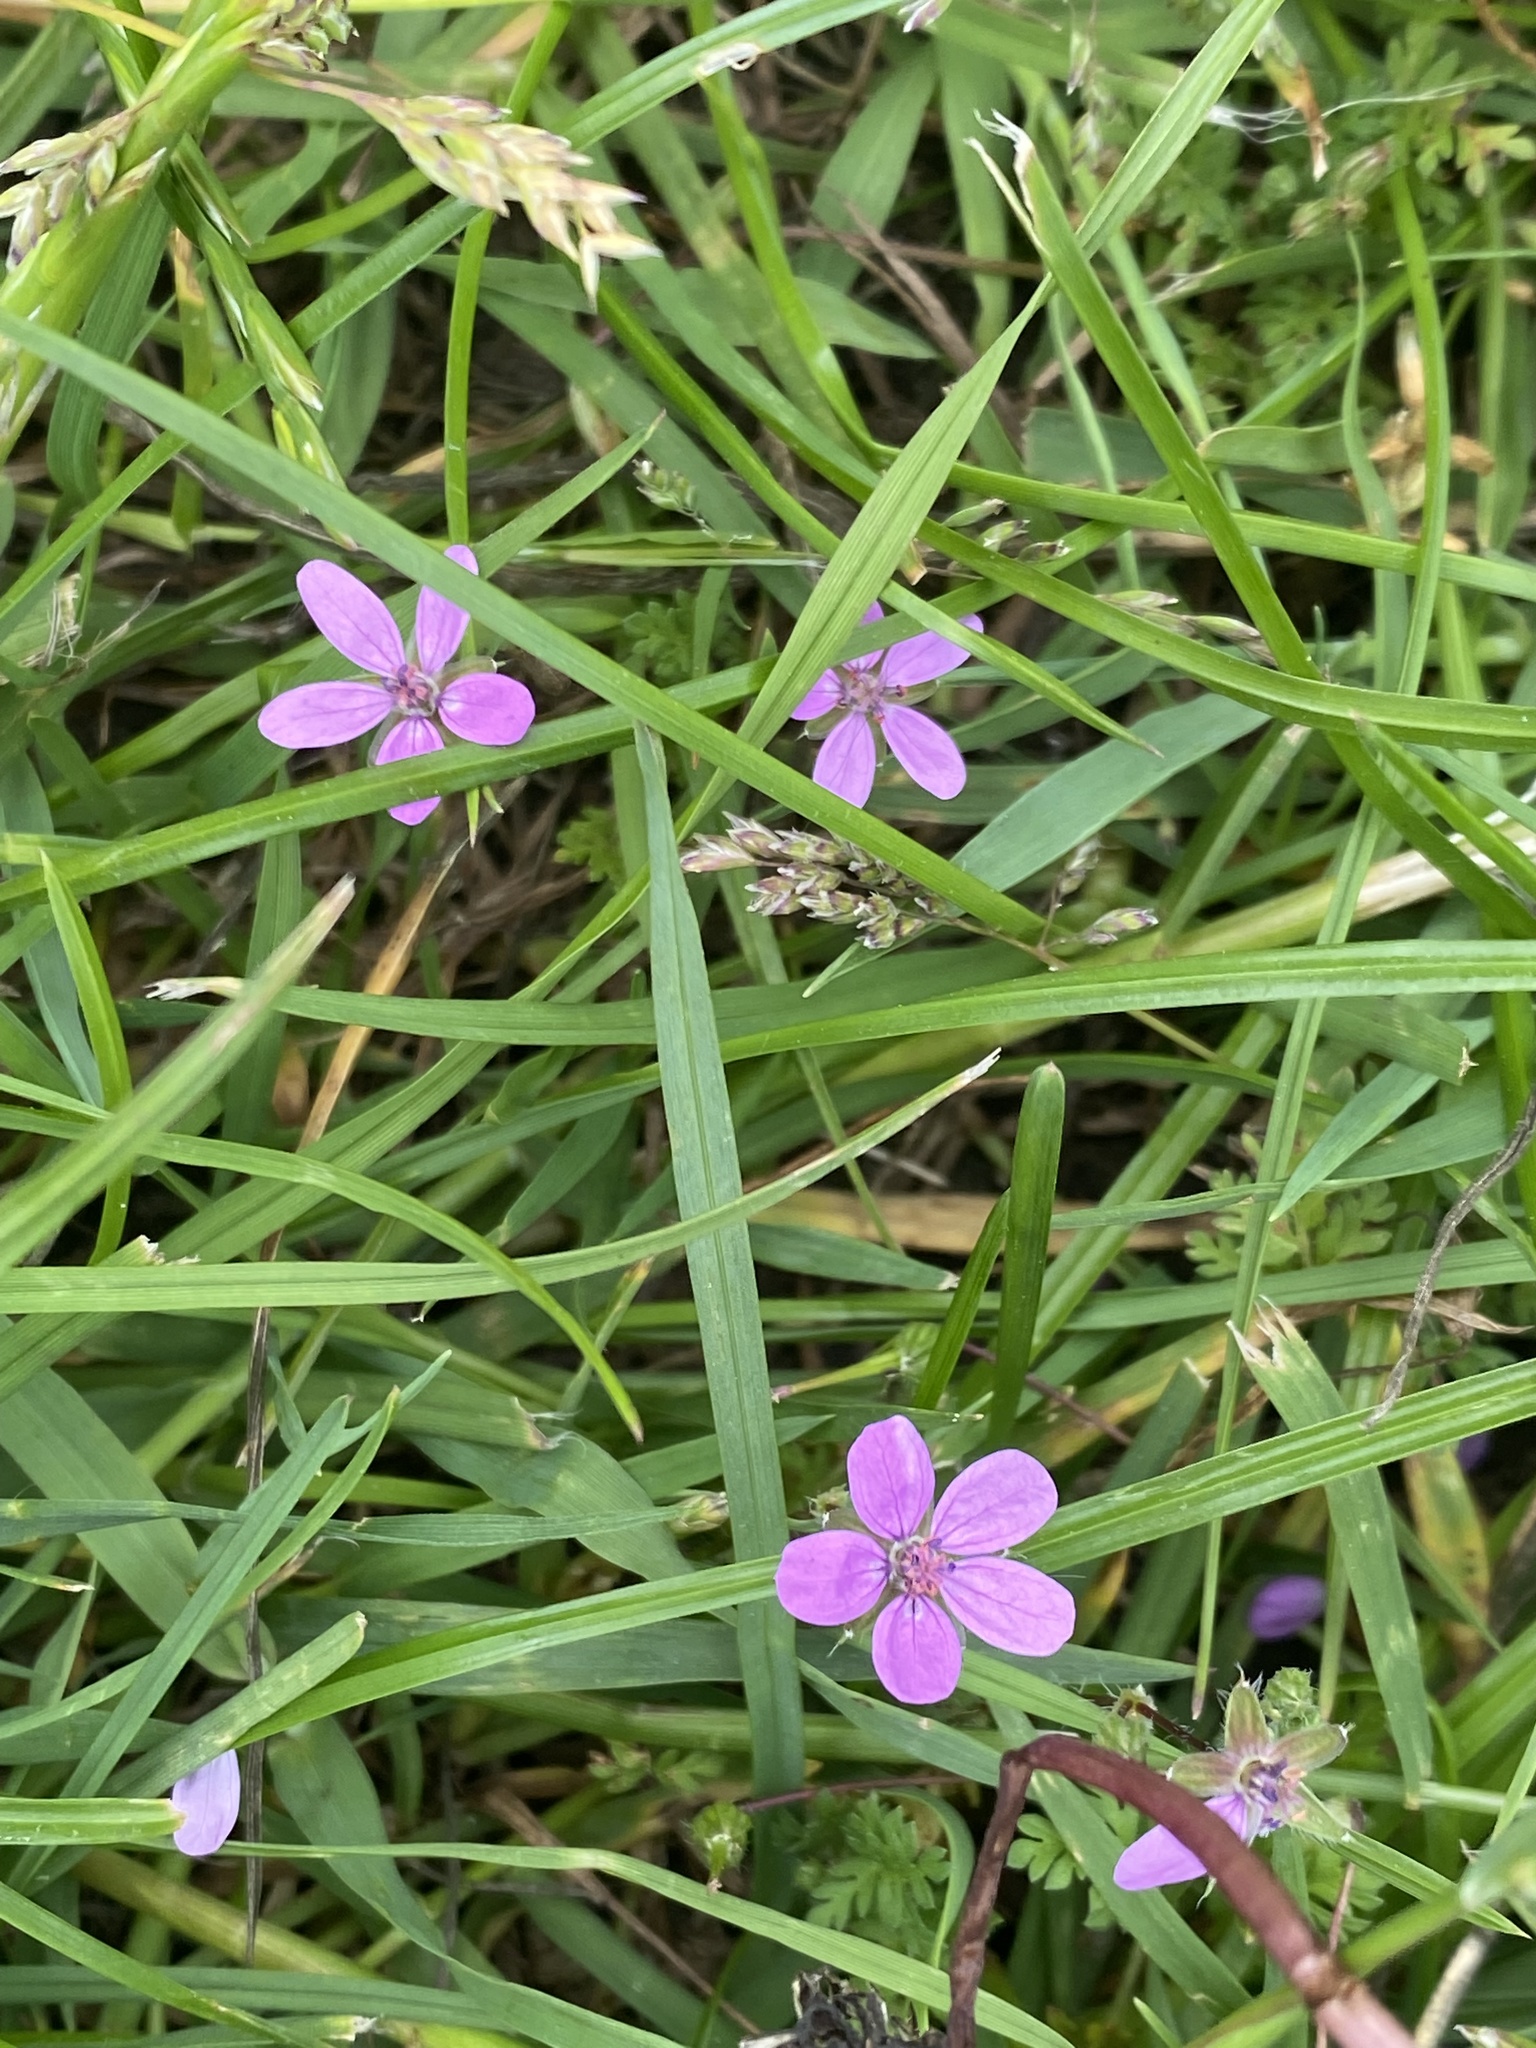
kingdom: Plantae
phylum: Tracheophyta
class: Magnoliopsida
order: Geraniales
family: Geraniaceae
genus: Erodium
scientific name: Erodium cicutarium
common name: Common stork's-bill
